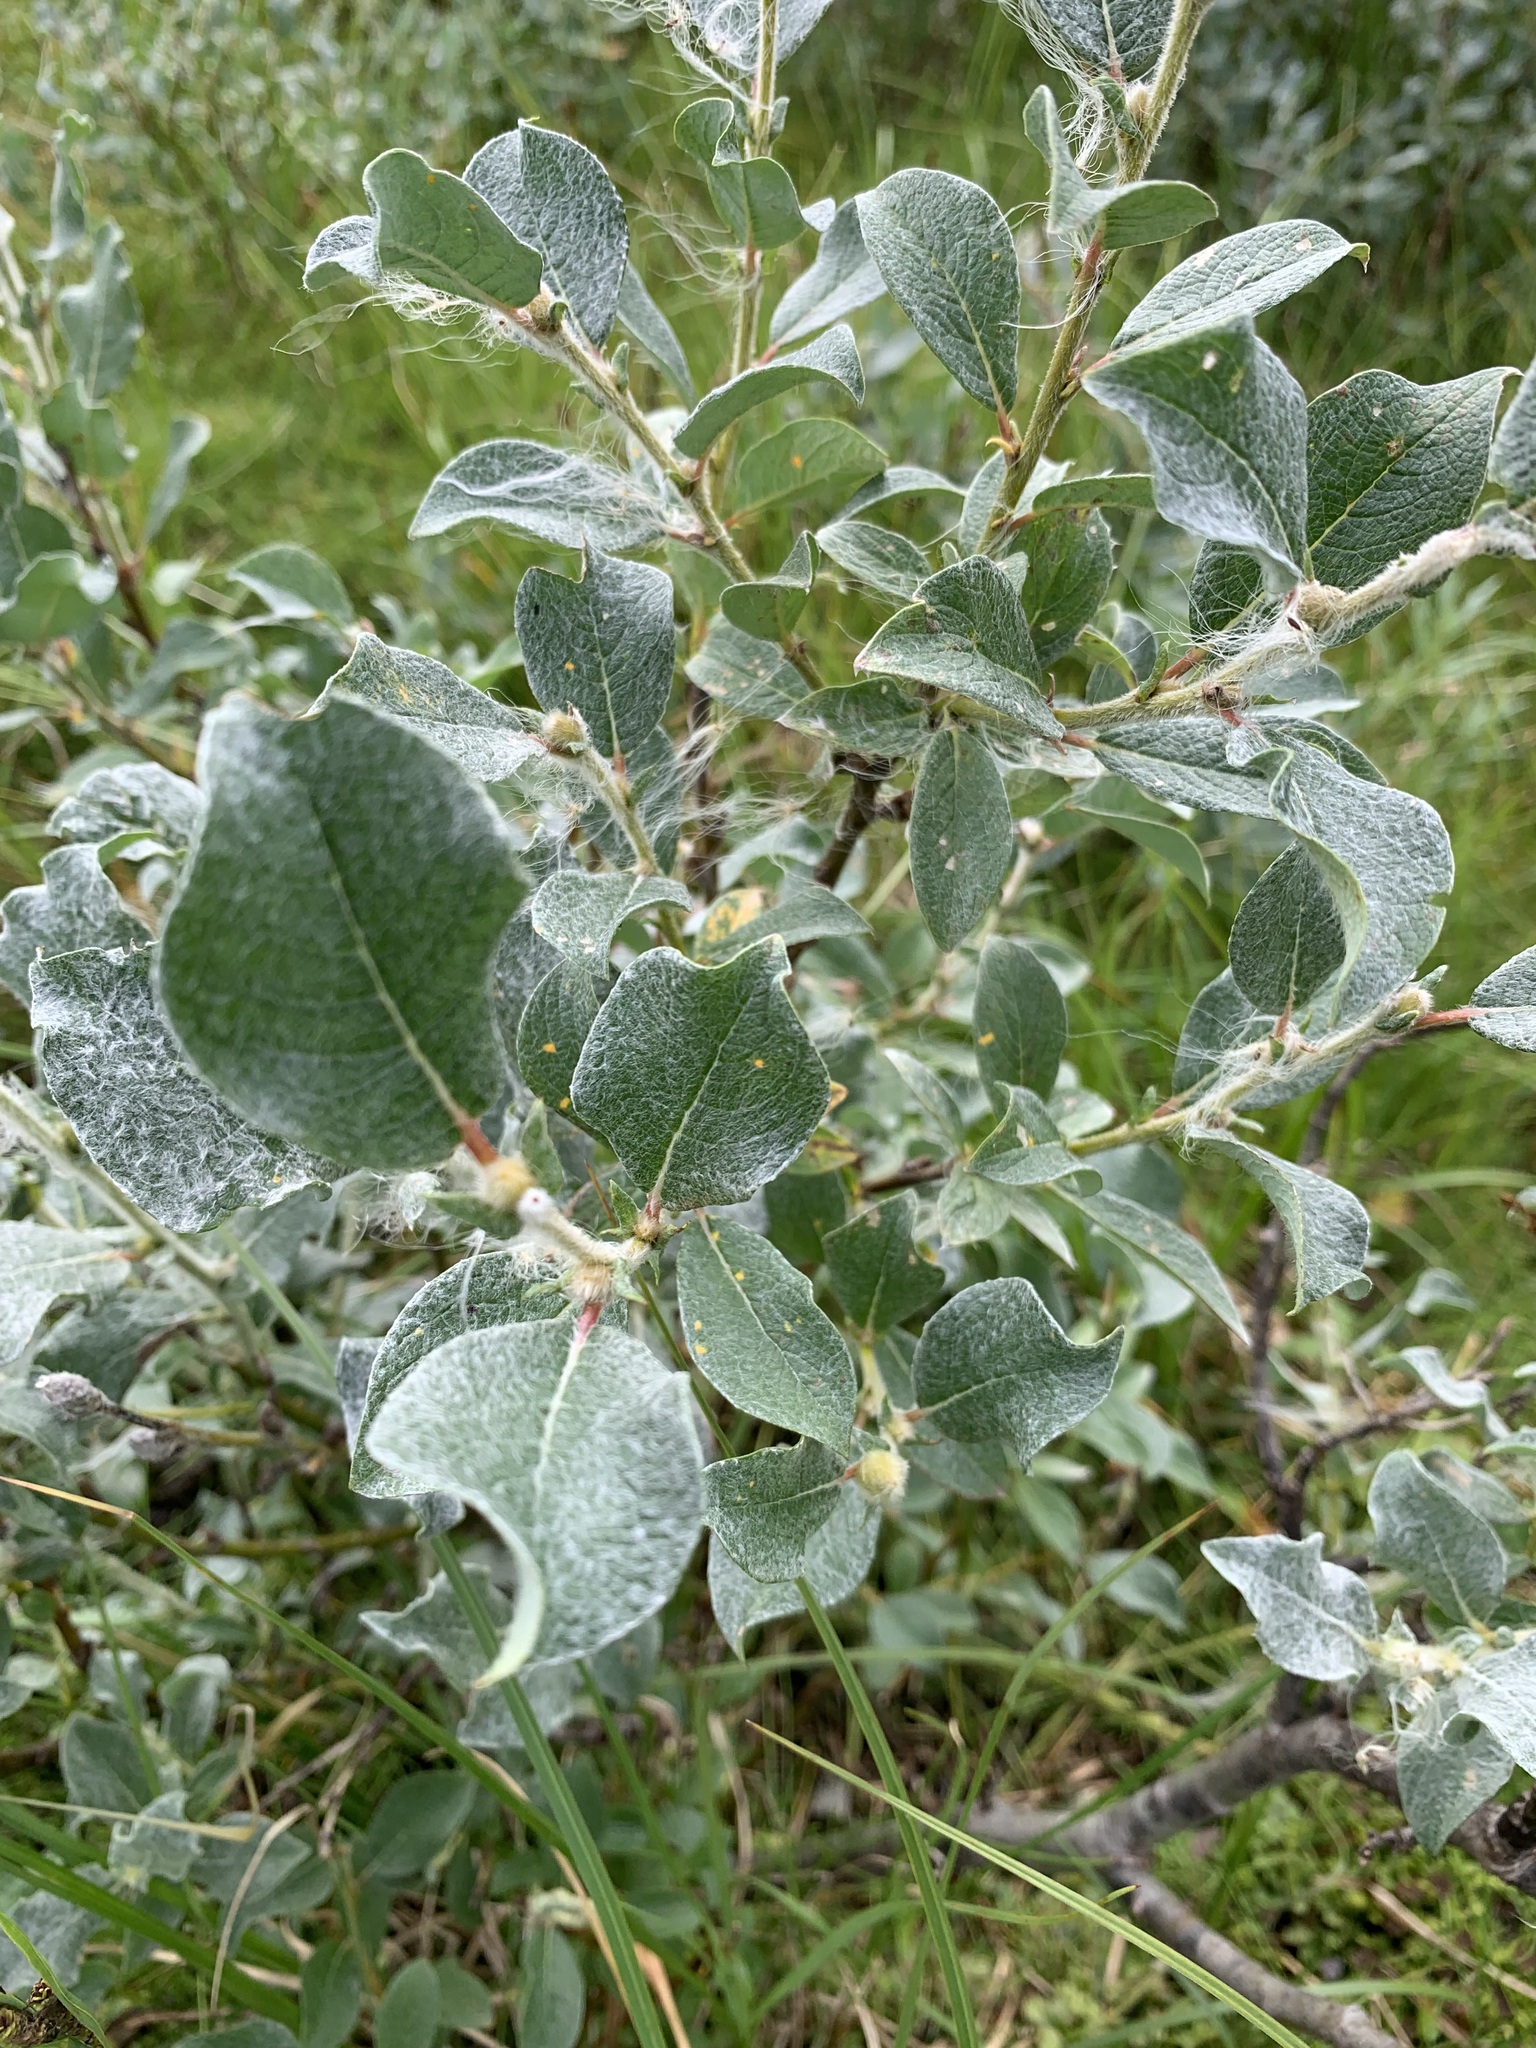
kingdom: Plantae
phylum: Tracheophyta
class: Magnoliopsida
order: Malpighiales
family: Salicaceae
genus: Salix
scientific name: Salix lanata
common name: Woolly willow
